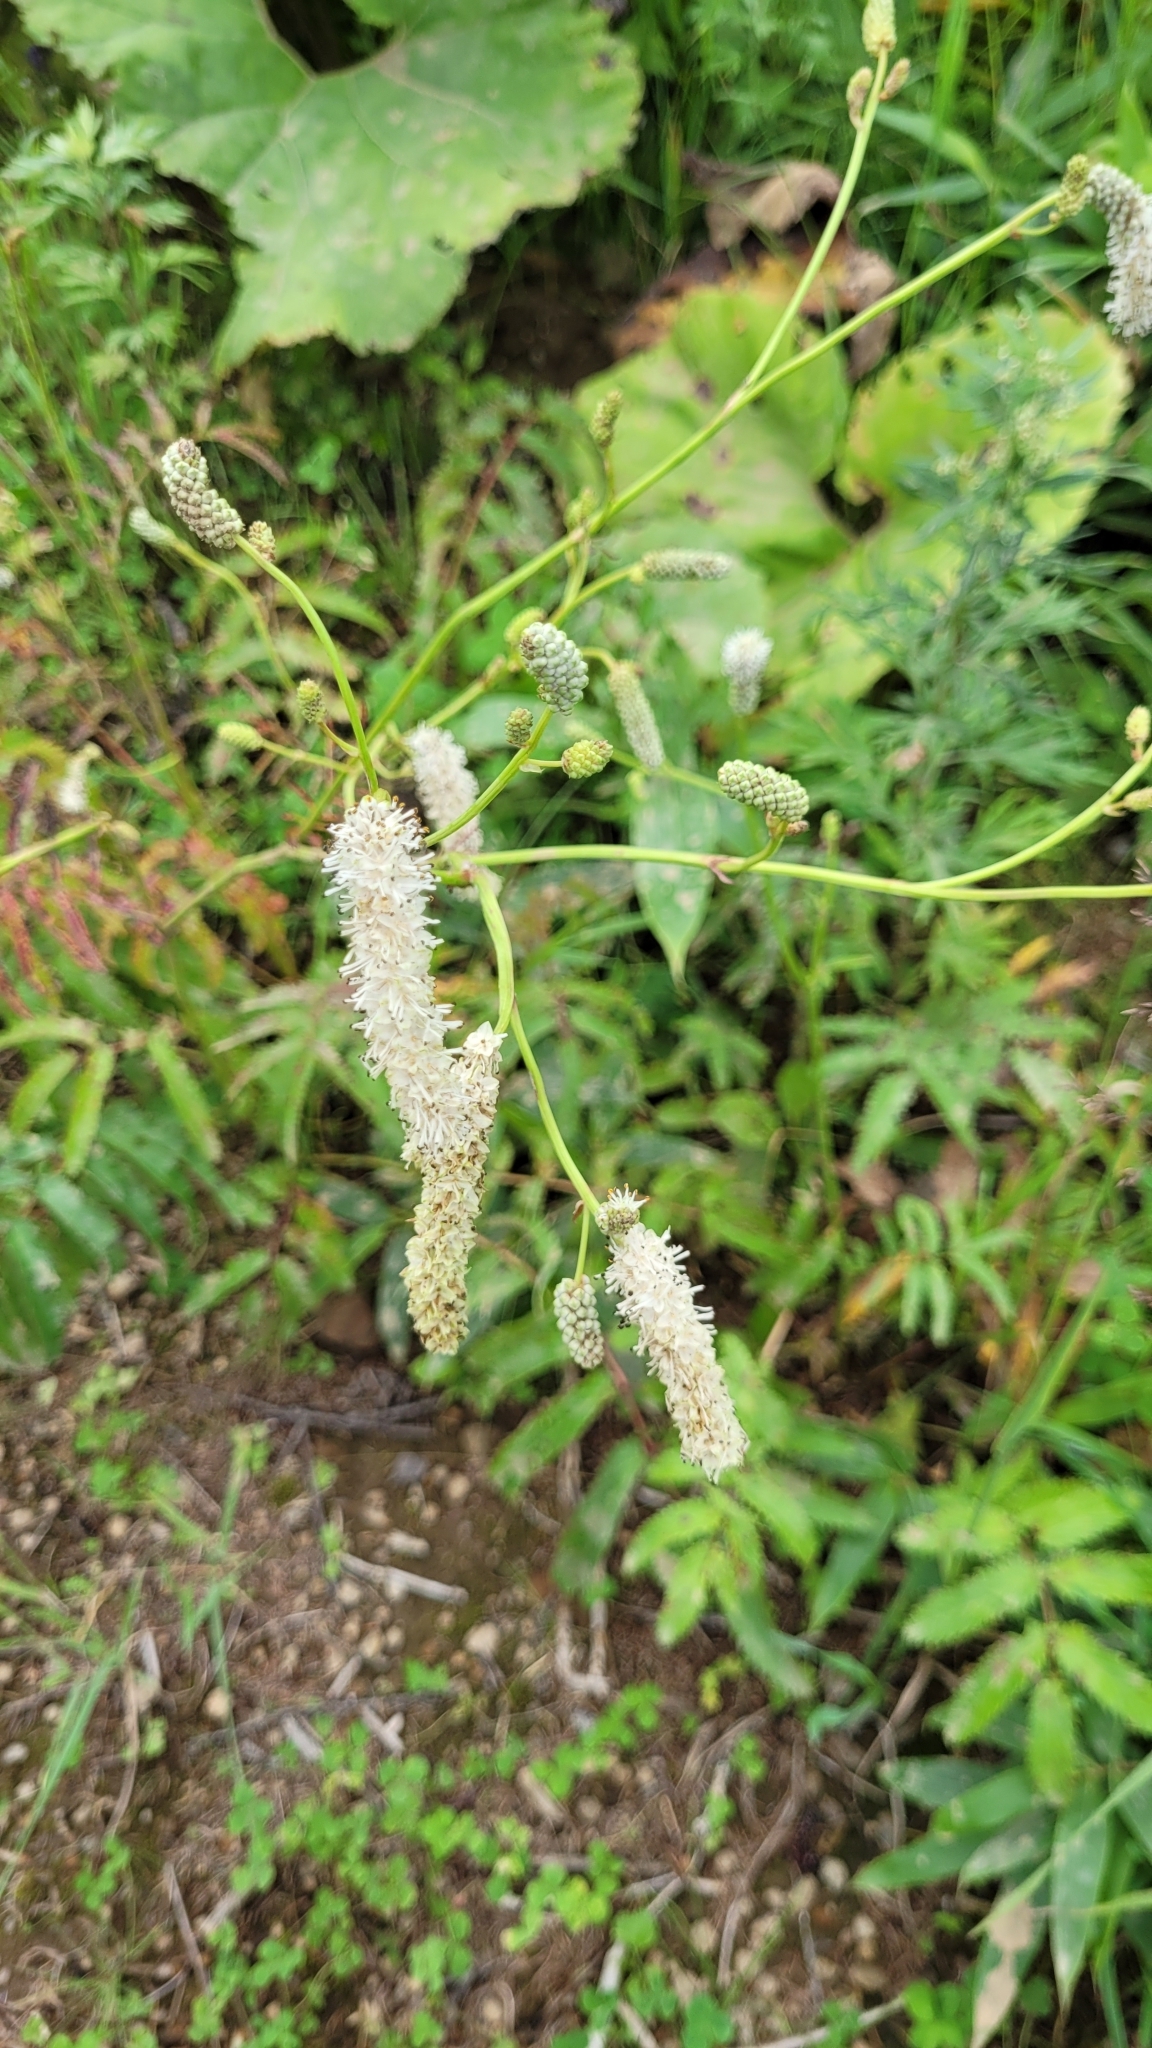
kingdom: Plantae
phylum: Tracheophyta
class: Magnoliopsida
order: Rosales
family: Rosaceae
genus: Poterium
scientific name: Poterium tenuifolium
